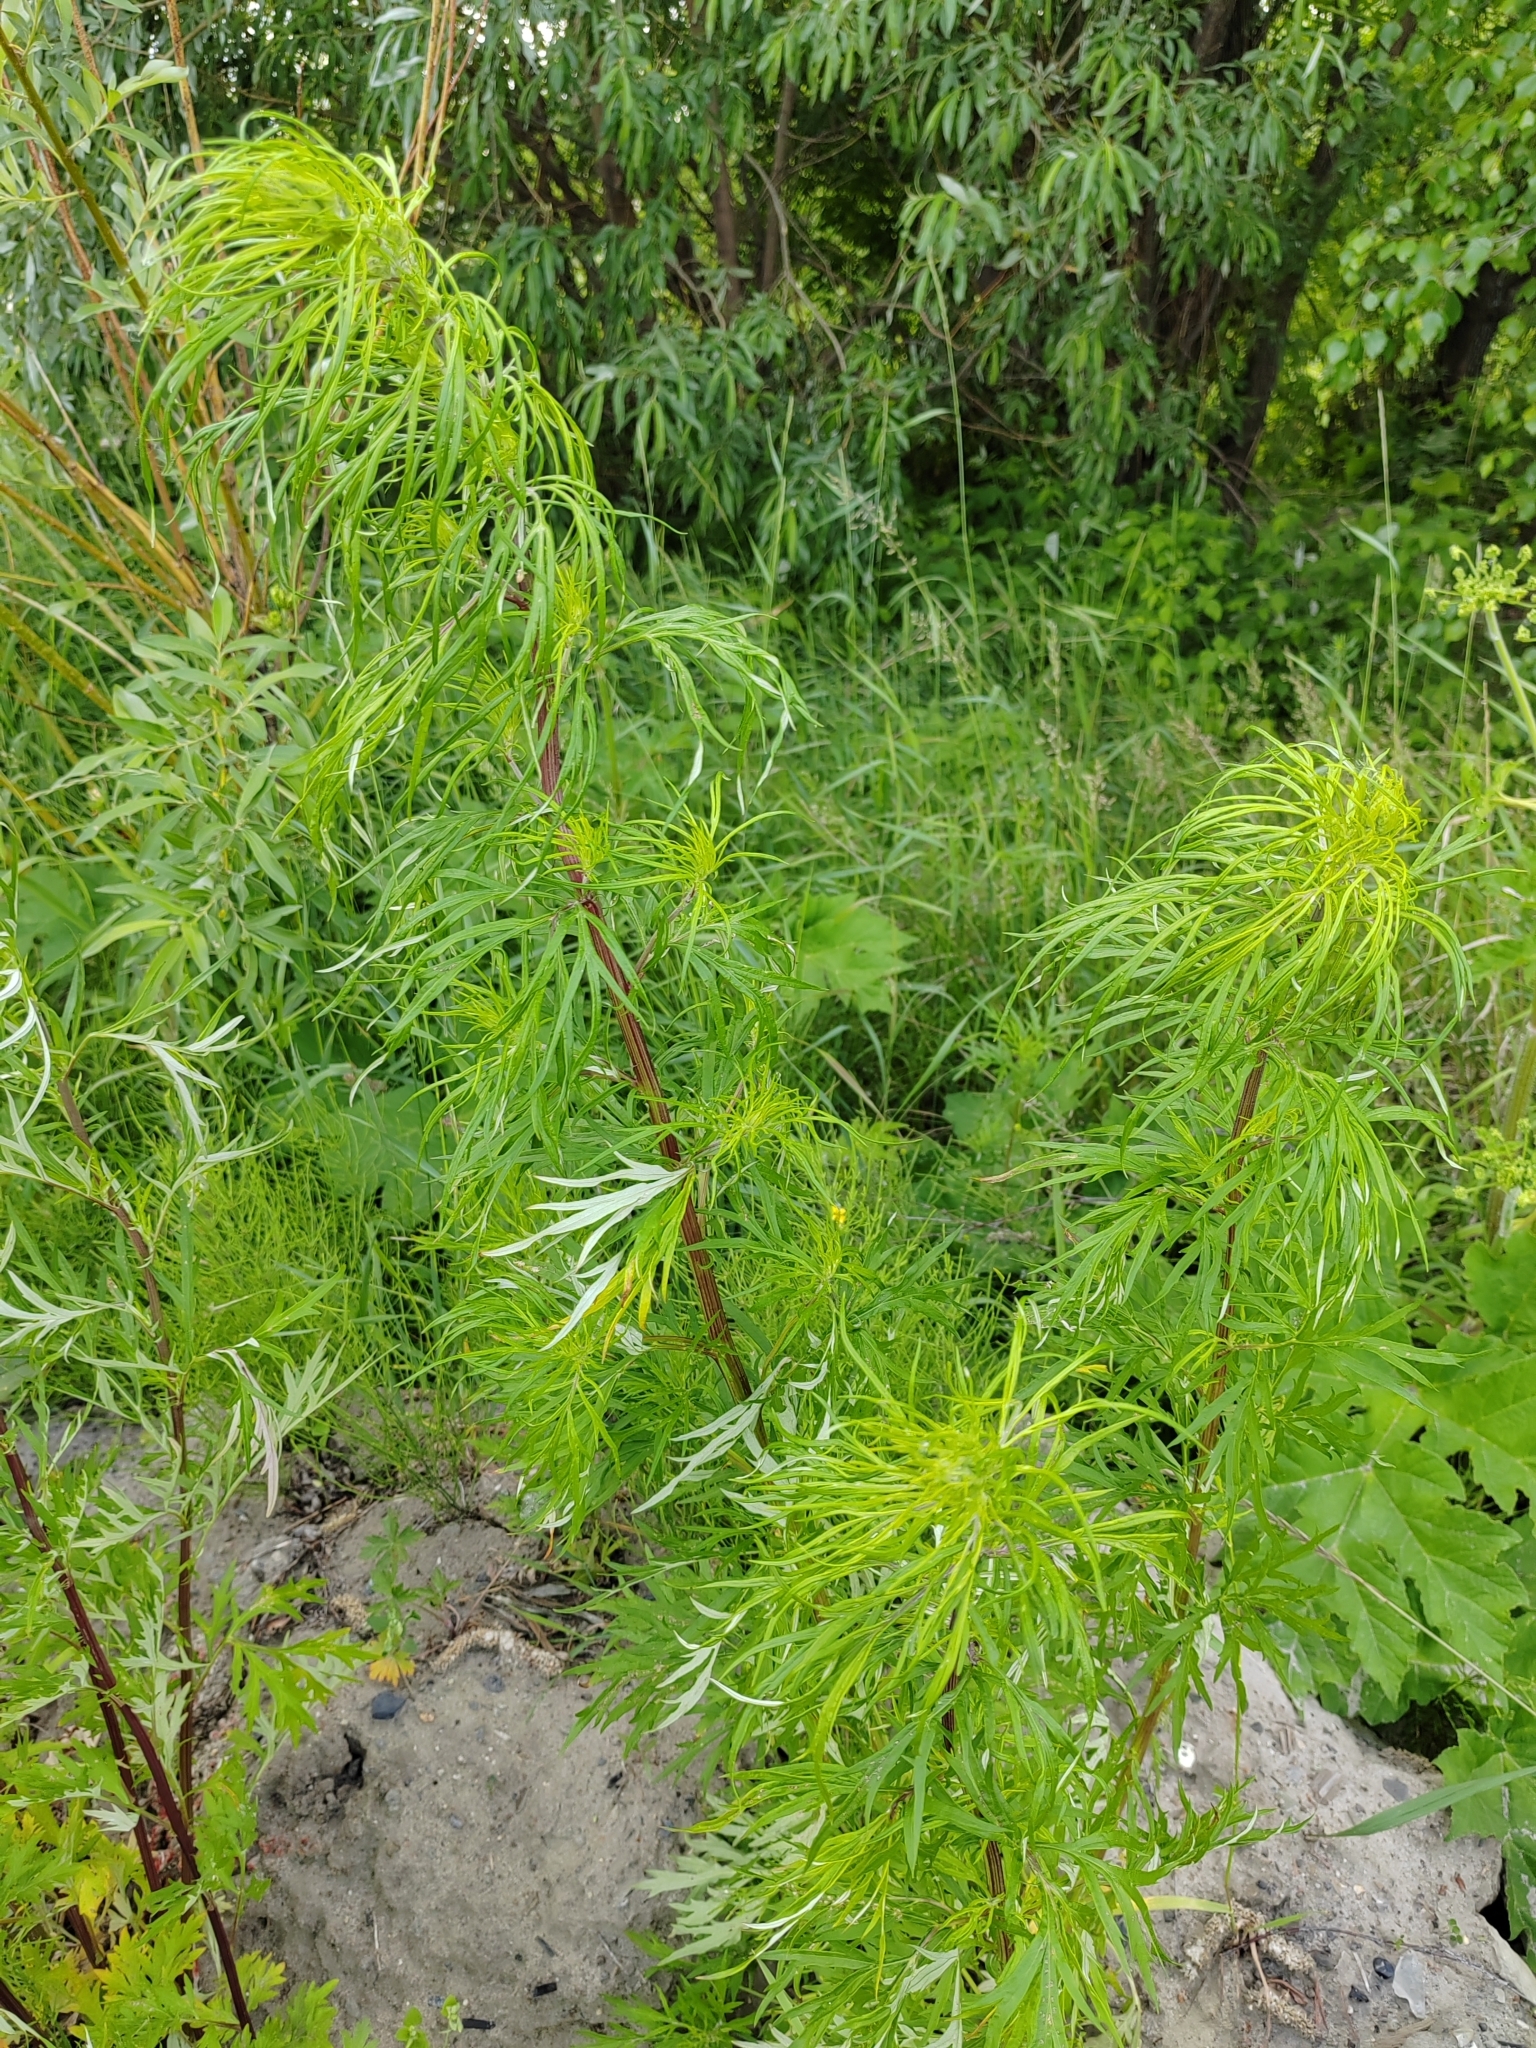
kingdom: Plantae
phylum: Tracheophyta
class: Magnoliopsida
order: Asterales
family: Asteraceae
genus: Artemisia
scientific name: Artemisia vulgaris
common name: Mugwort
